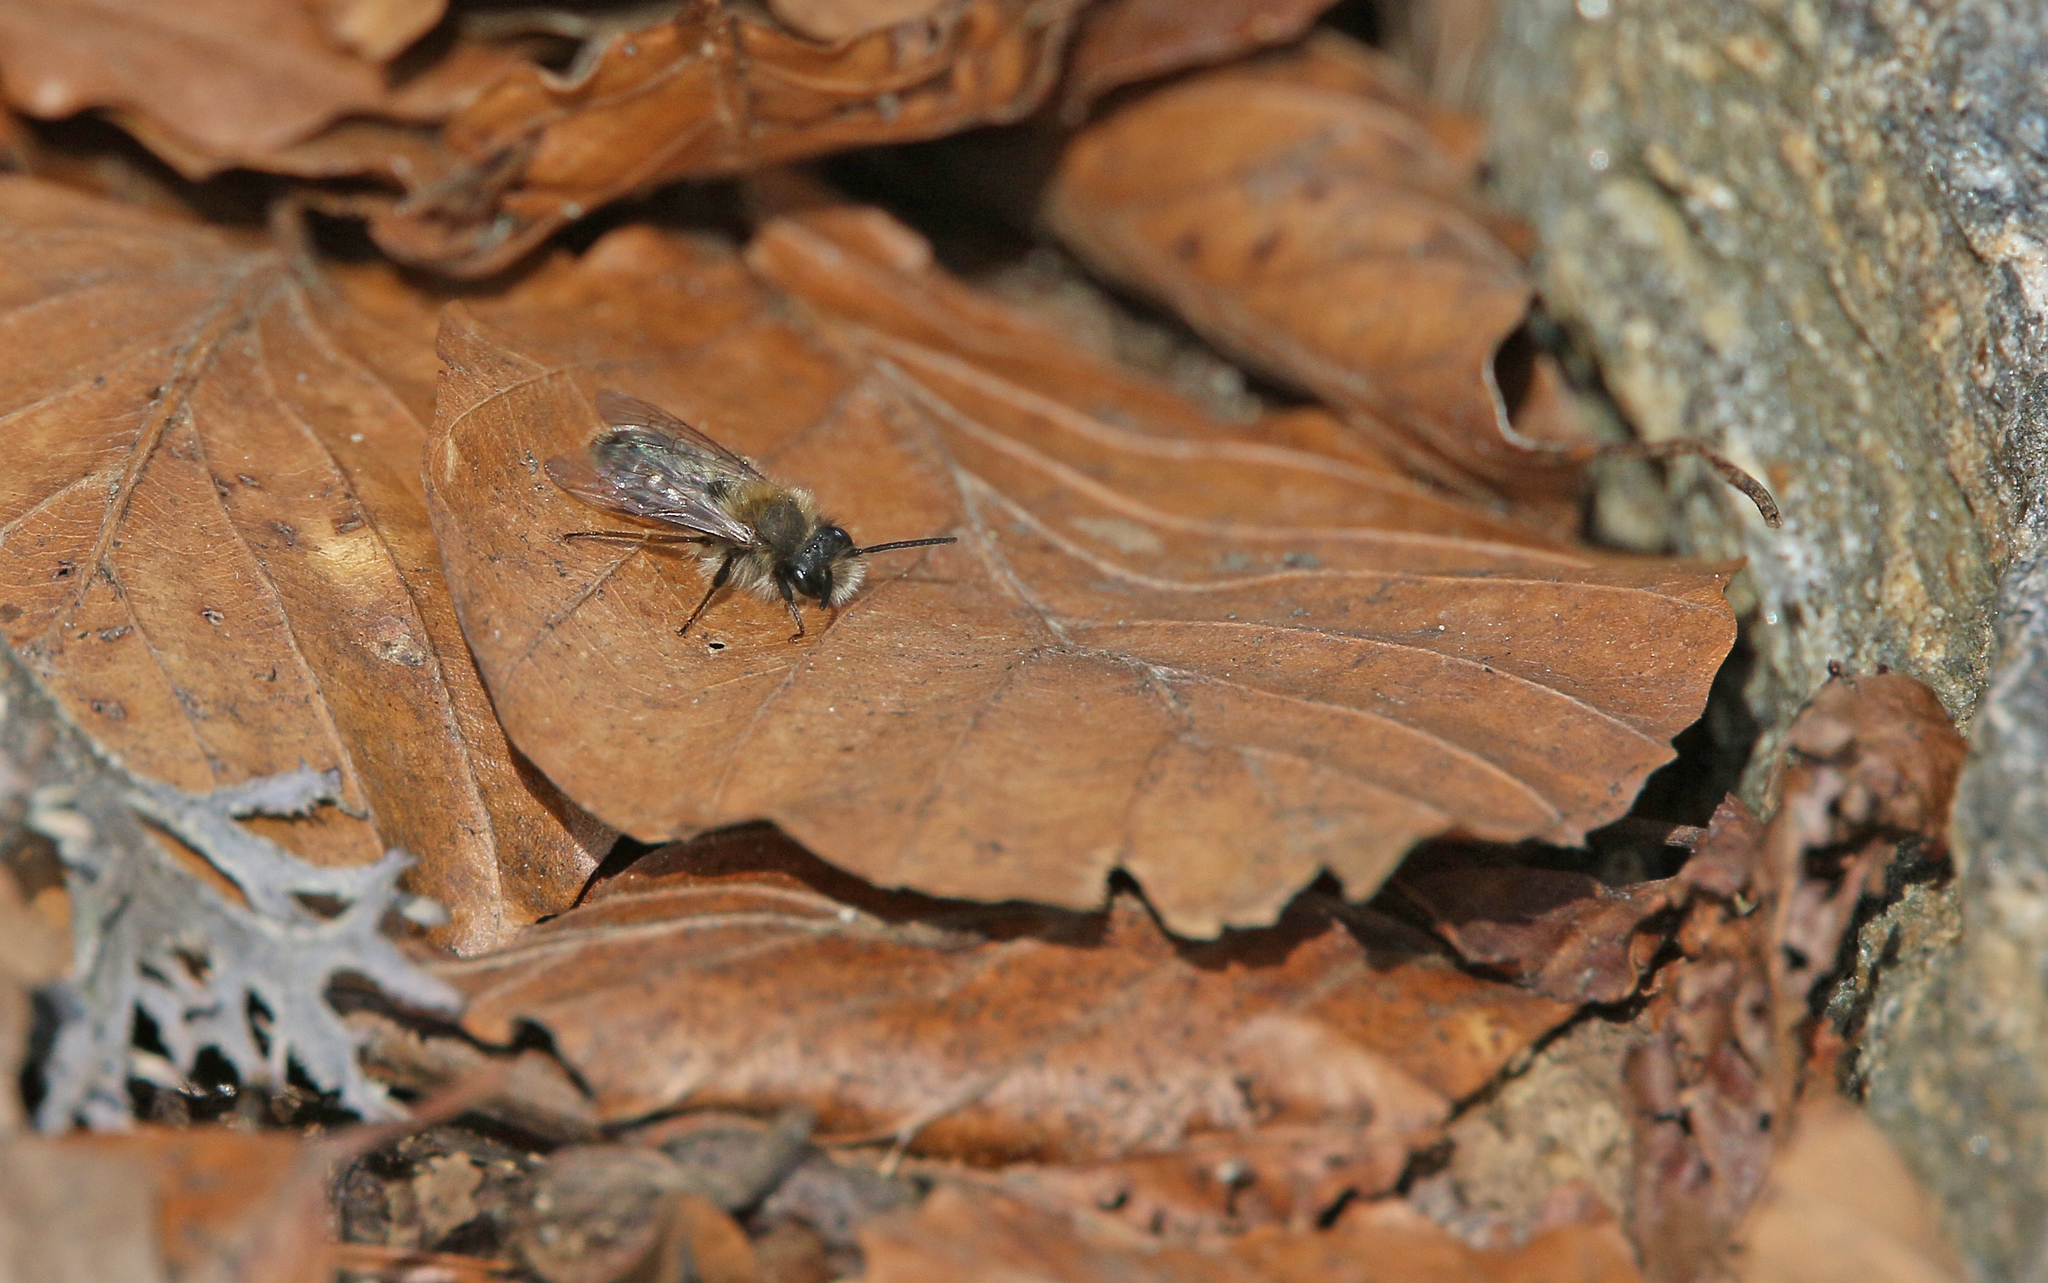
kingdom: Animalia
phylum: Arthropoda
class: Insecta
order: Hymenoptera
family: Andrenidae
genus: Andrena
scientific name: Andrena clarkella
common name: Clarke's mining bee
